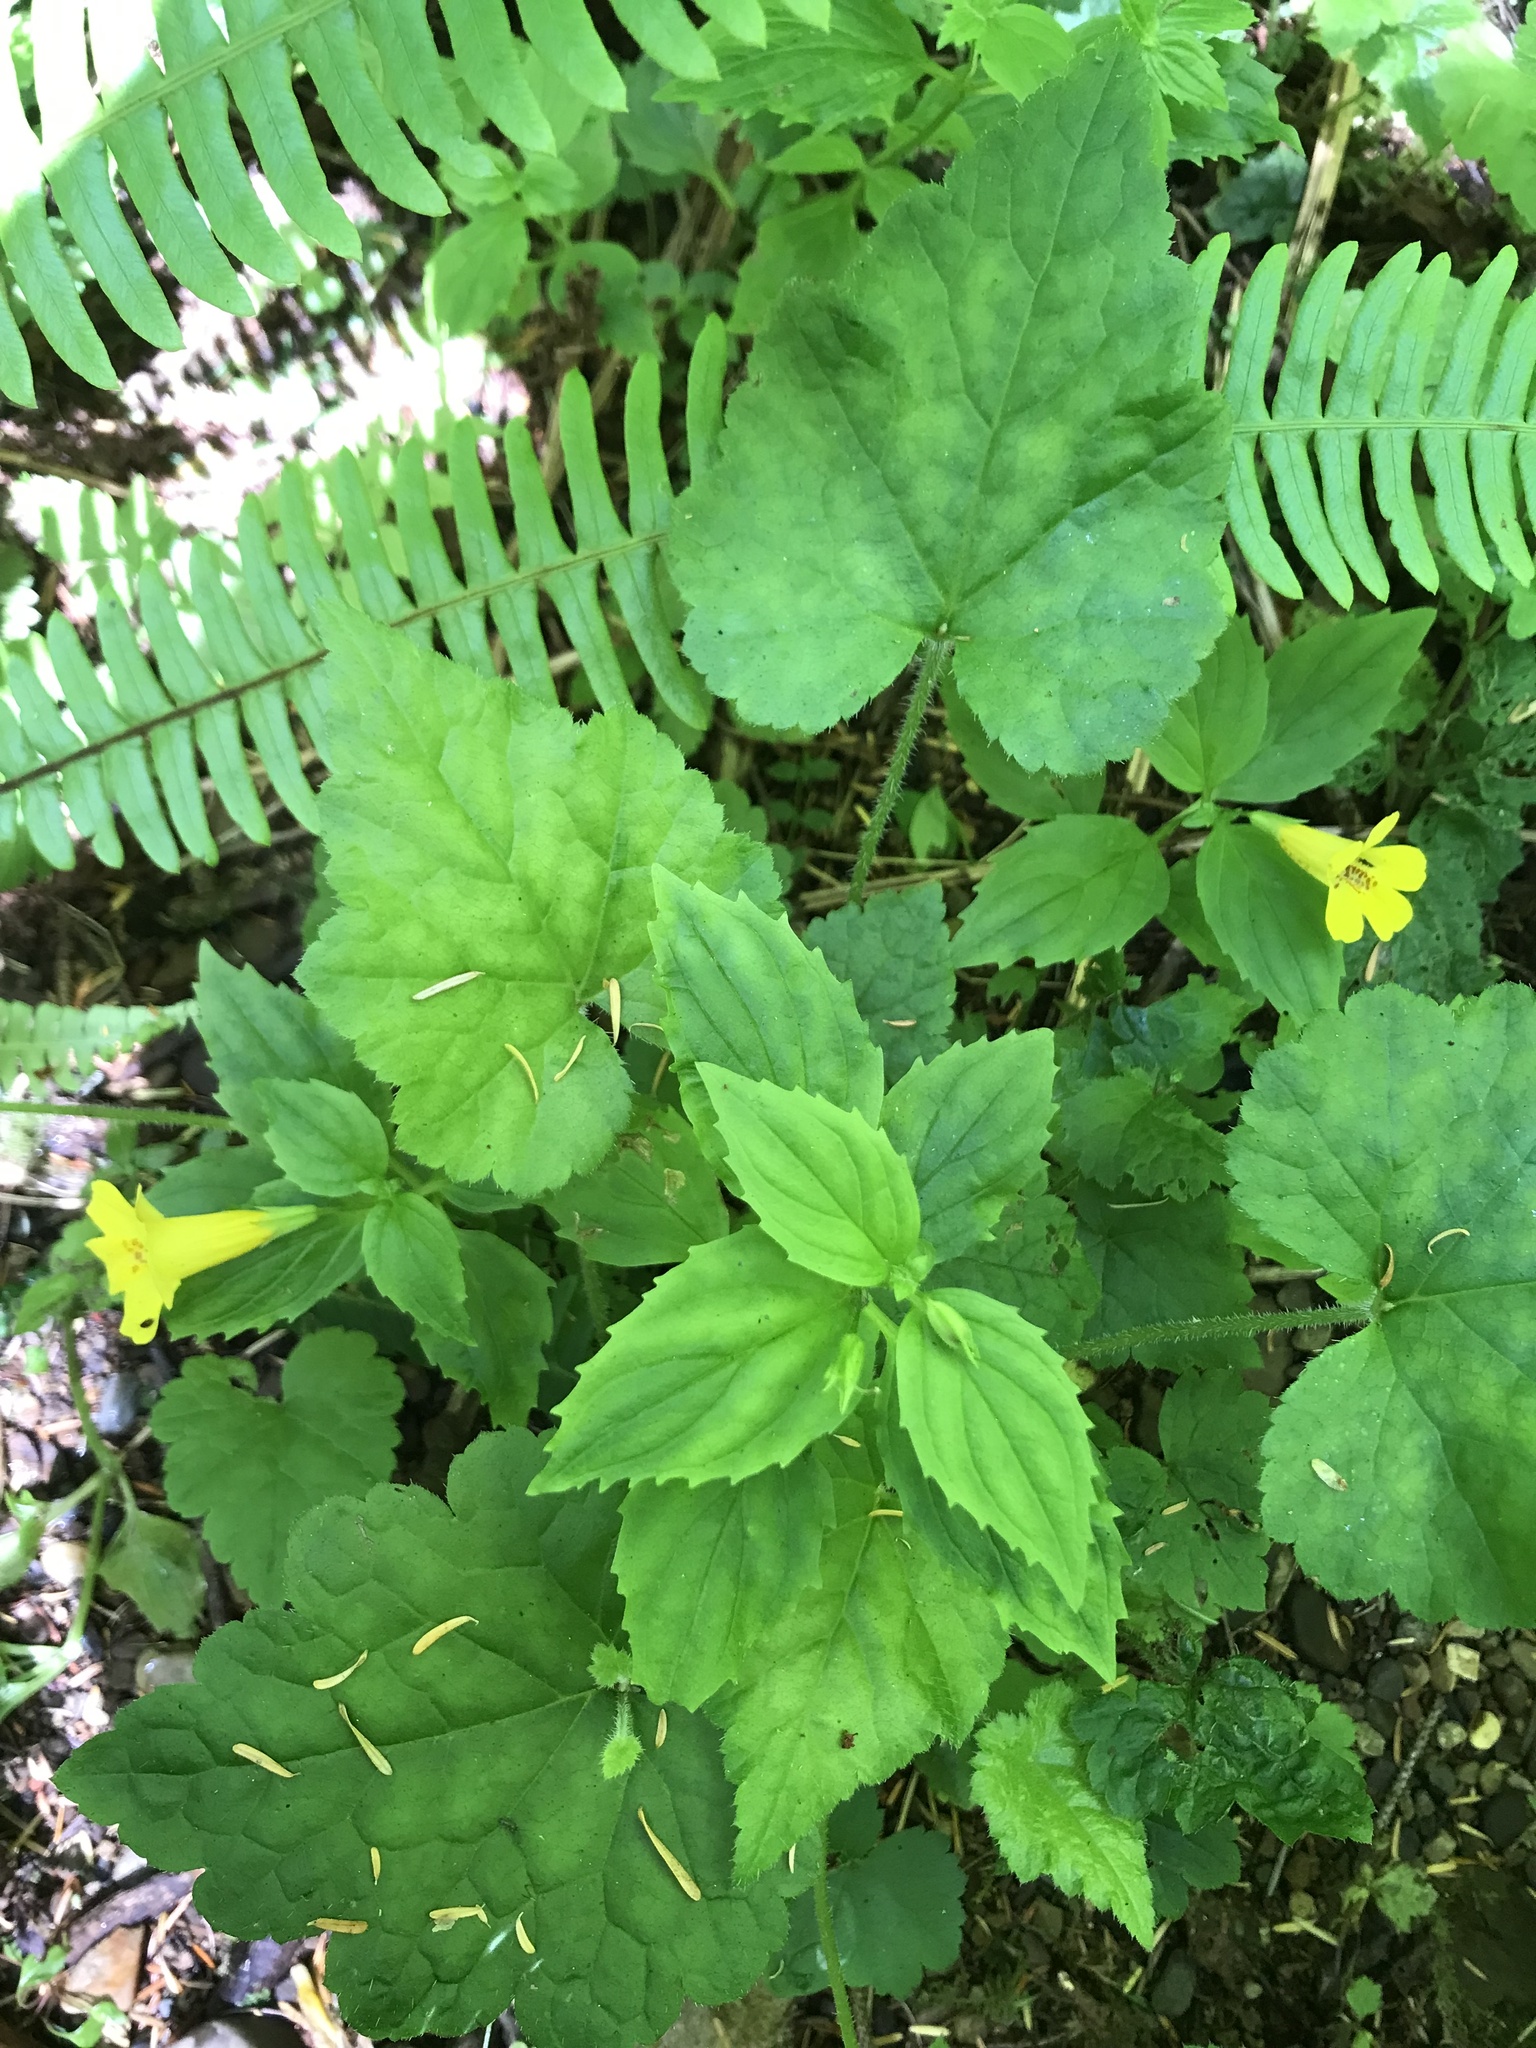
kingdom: Plantae
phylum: Tracheophyta
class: Magnoliopsida
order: Lamiales
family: Phrymaceae
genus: Erythranthe
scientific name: Erythranthe dentata
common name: Coastal monkeyflower
